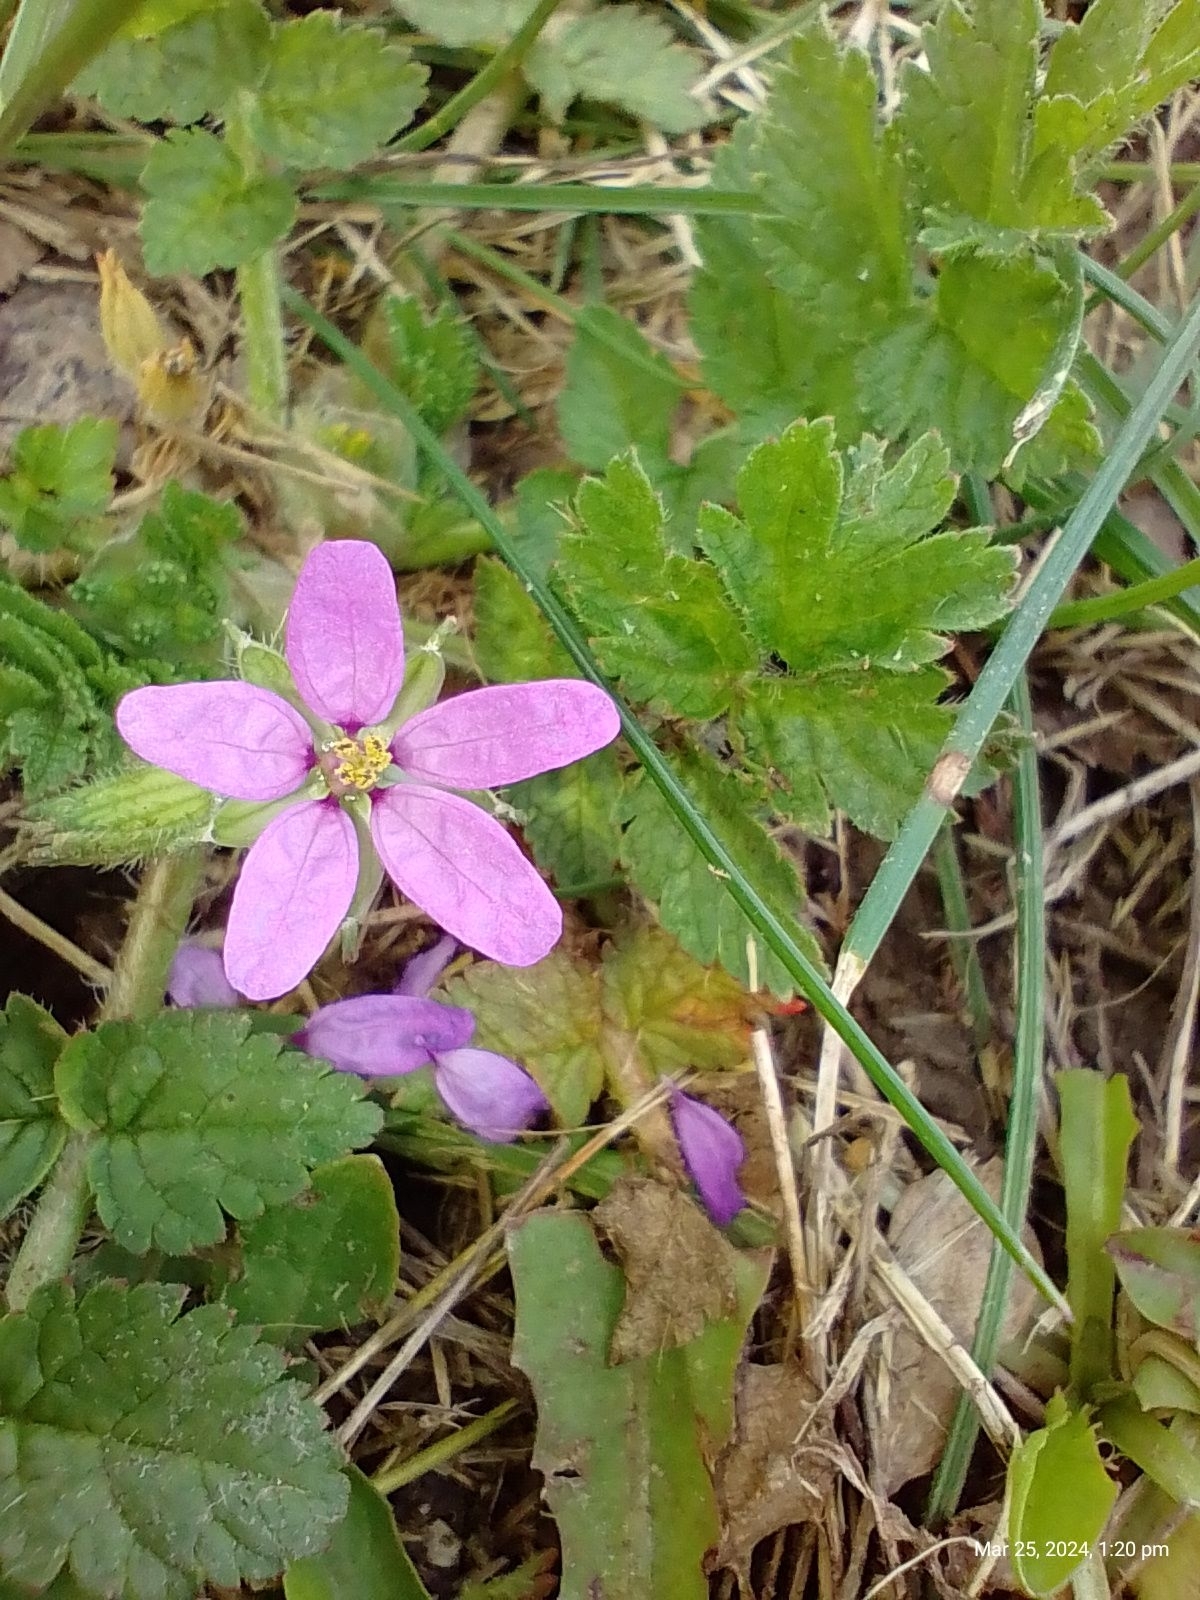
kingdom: Plantae
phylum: Tracheophyta
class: Magnoliopsida
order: Geraniales
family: Geraniaceae
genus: Erodium
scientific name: Erodium moschatum
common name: Musk stork's-bill
